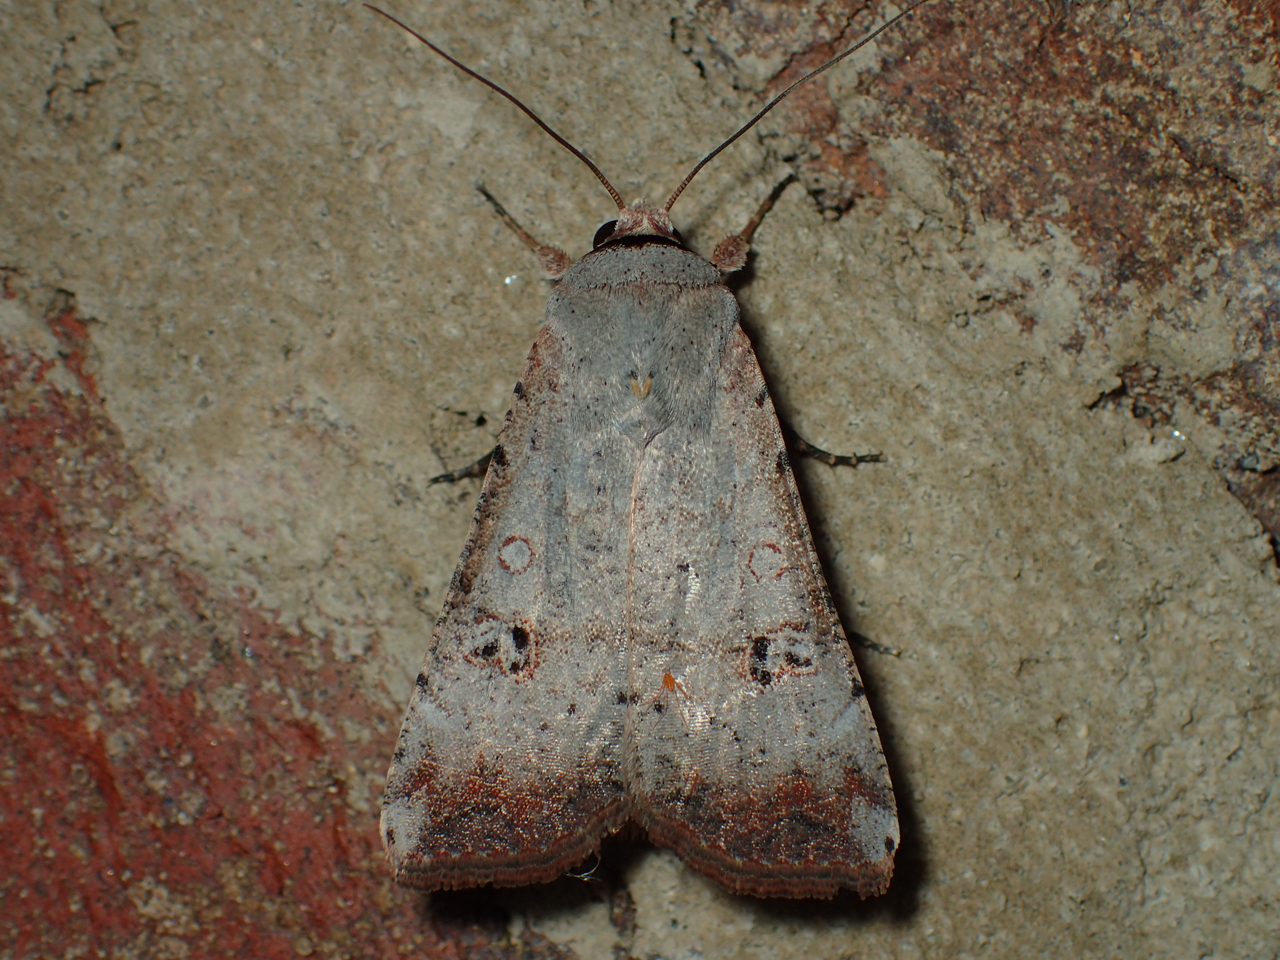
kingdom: Animalia
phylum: Arthropoda
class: Insecta
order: Lepidoptera
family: Noctuidae
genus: Anicla
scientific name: Anicla infecta
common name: Green cutworm
